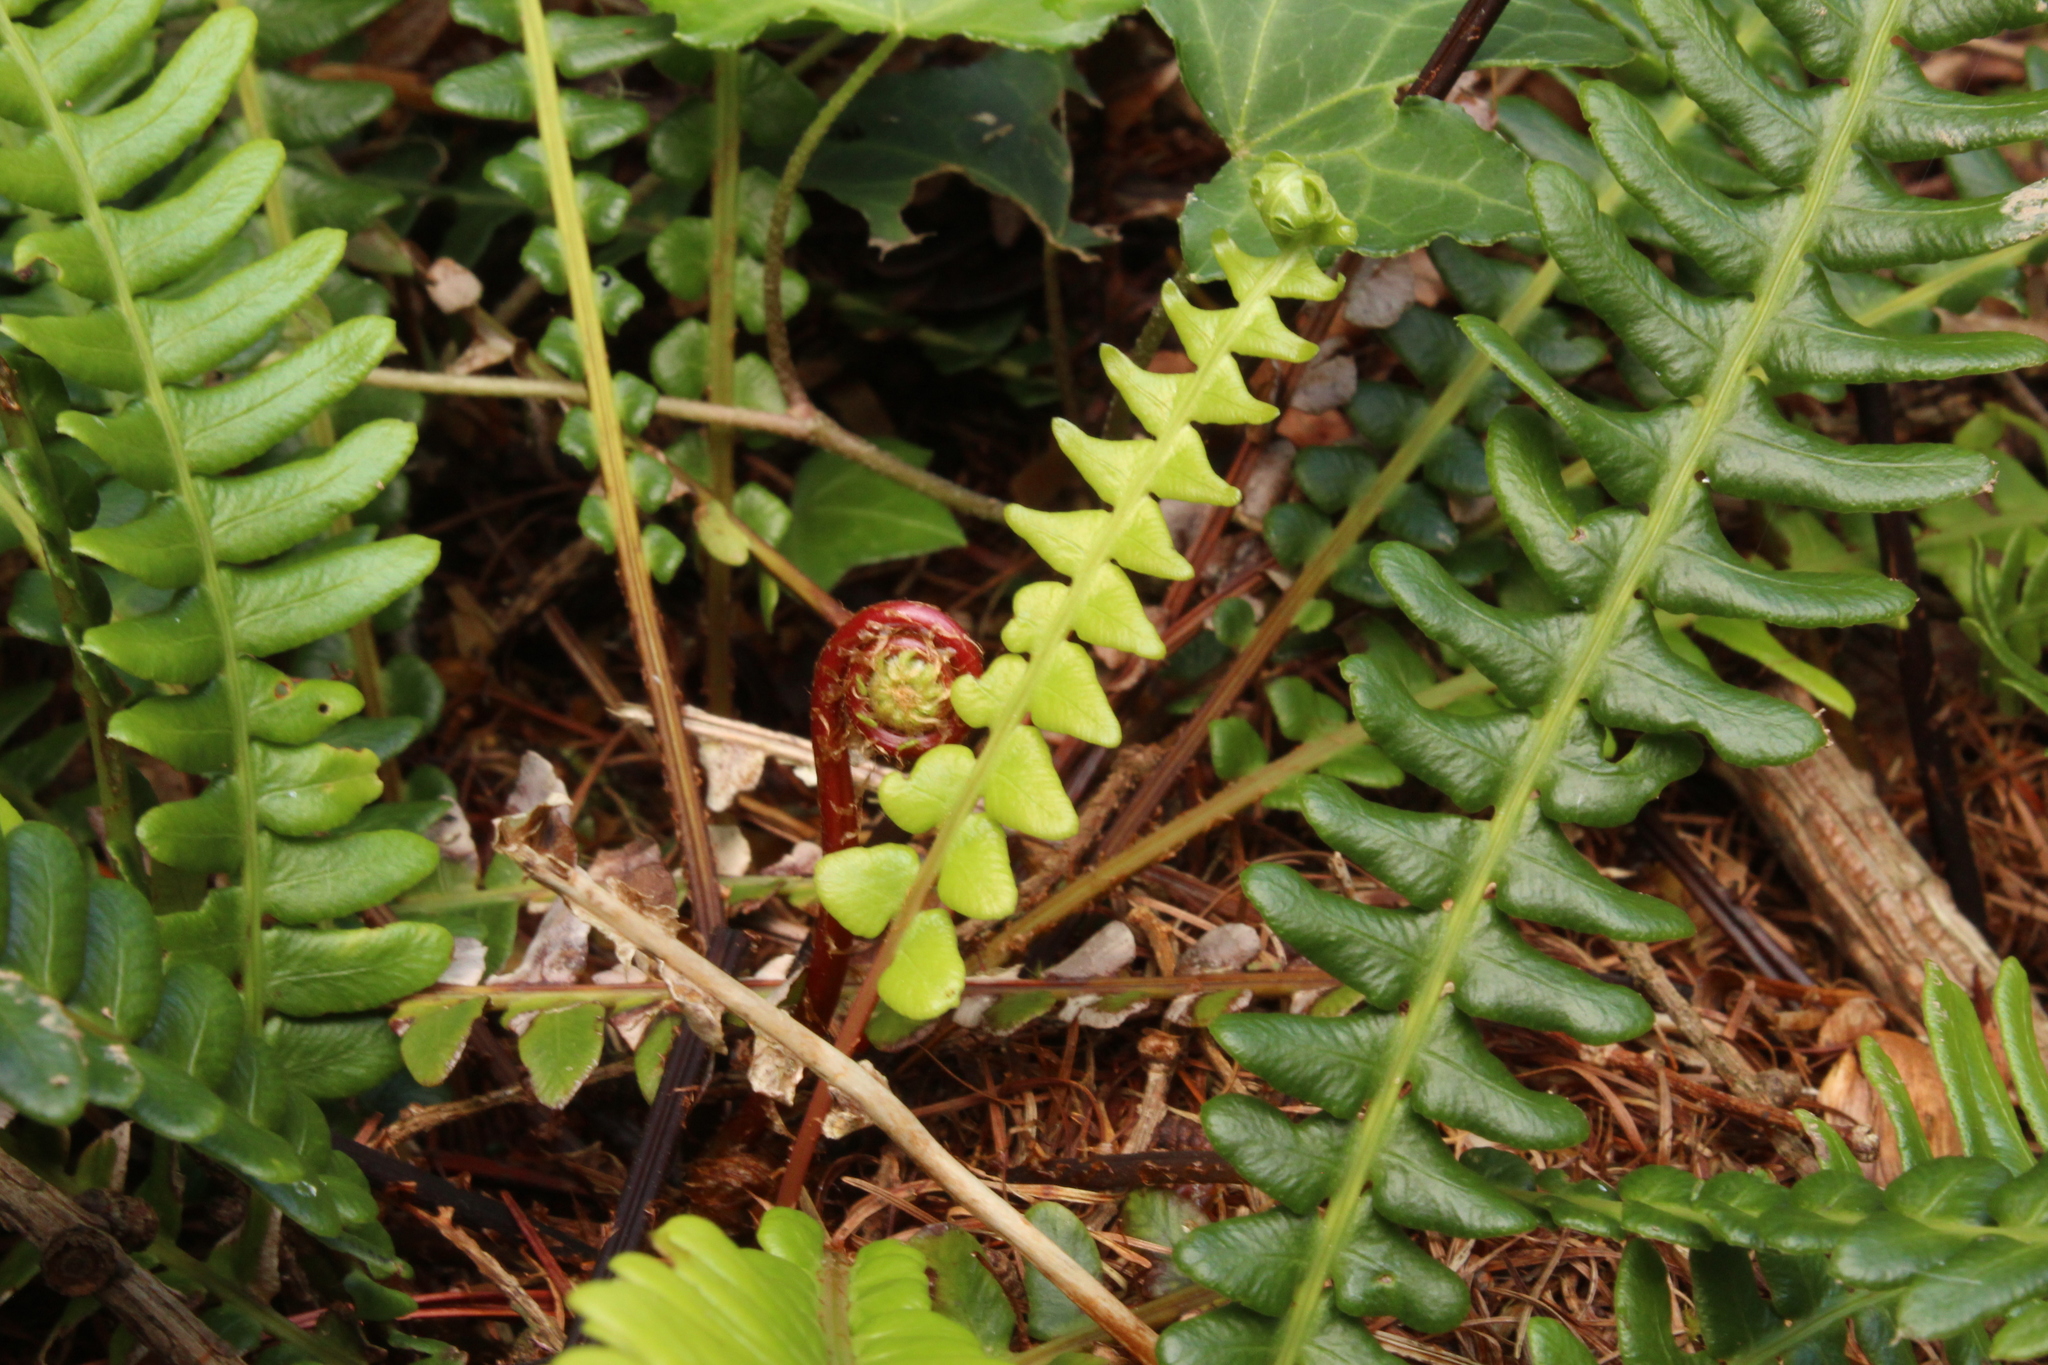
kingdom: Plantae
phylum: Tracheophyta
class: Polypodiopsida
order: Polypodiales
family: Blechnaceae
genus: Struthiopteris
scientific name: Struthiopteris spicant
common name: Deer fern
